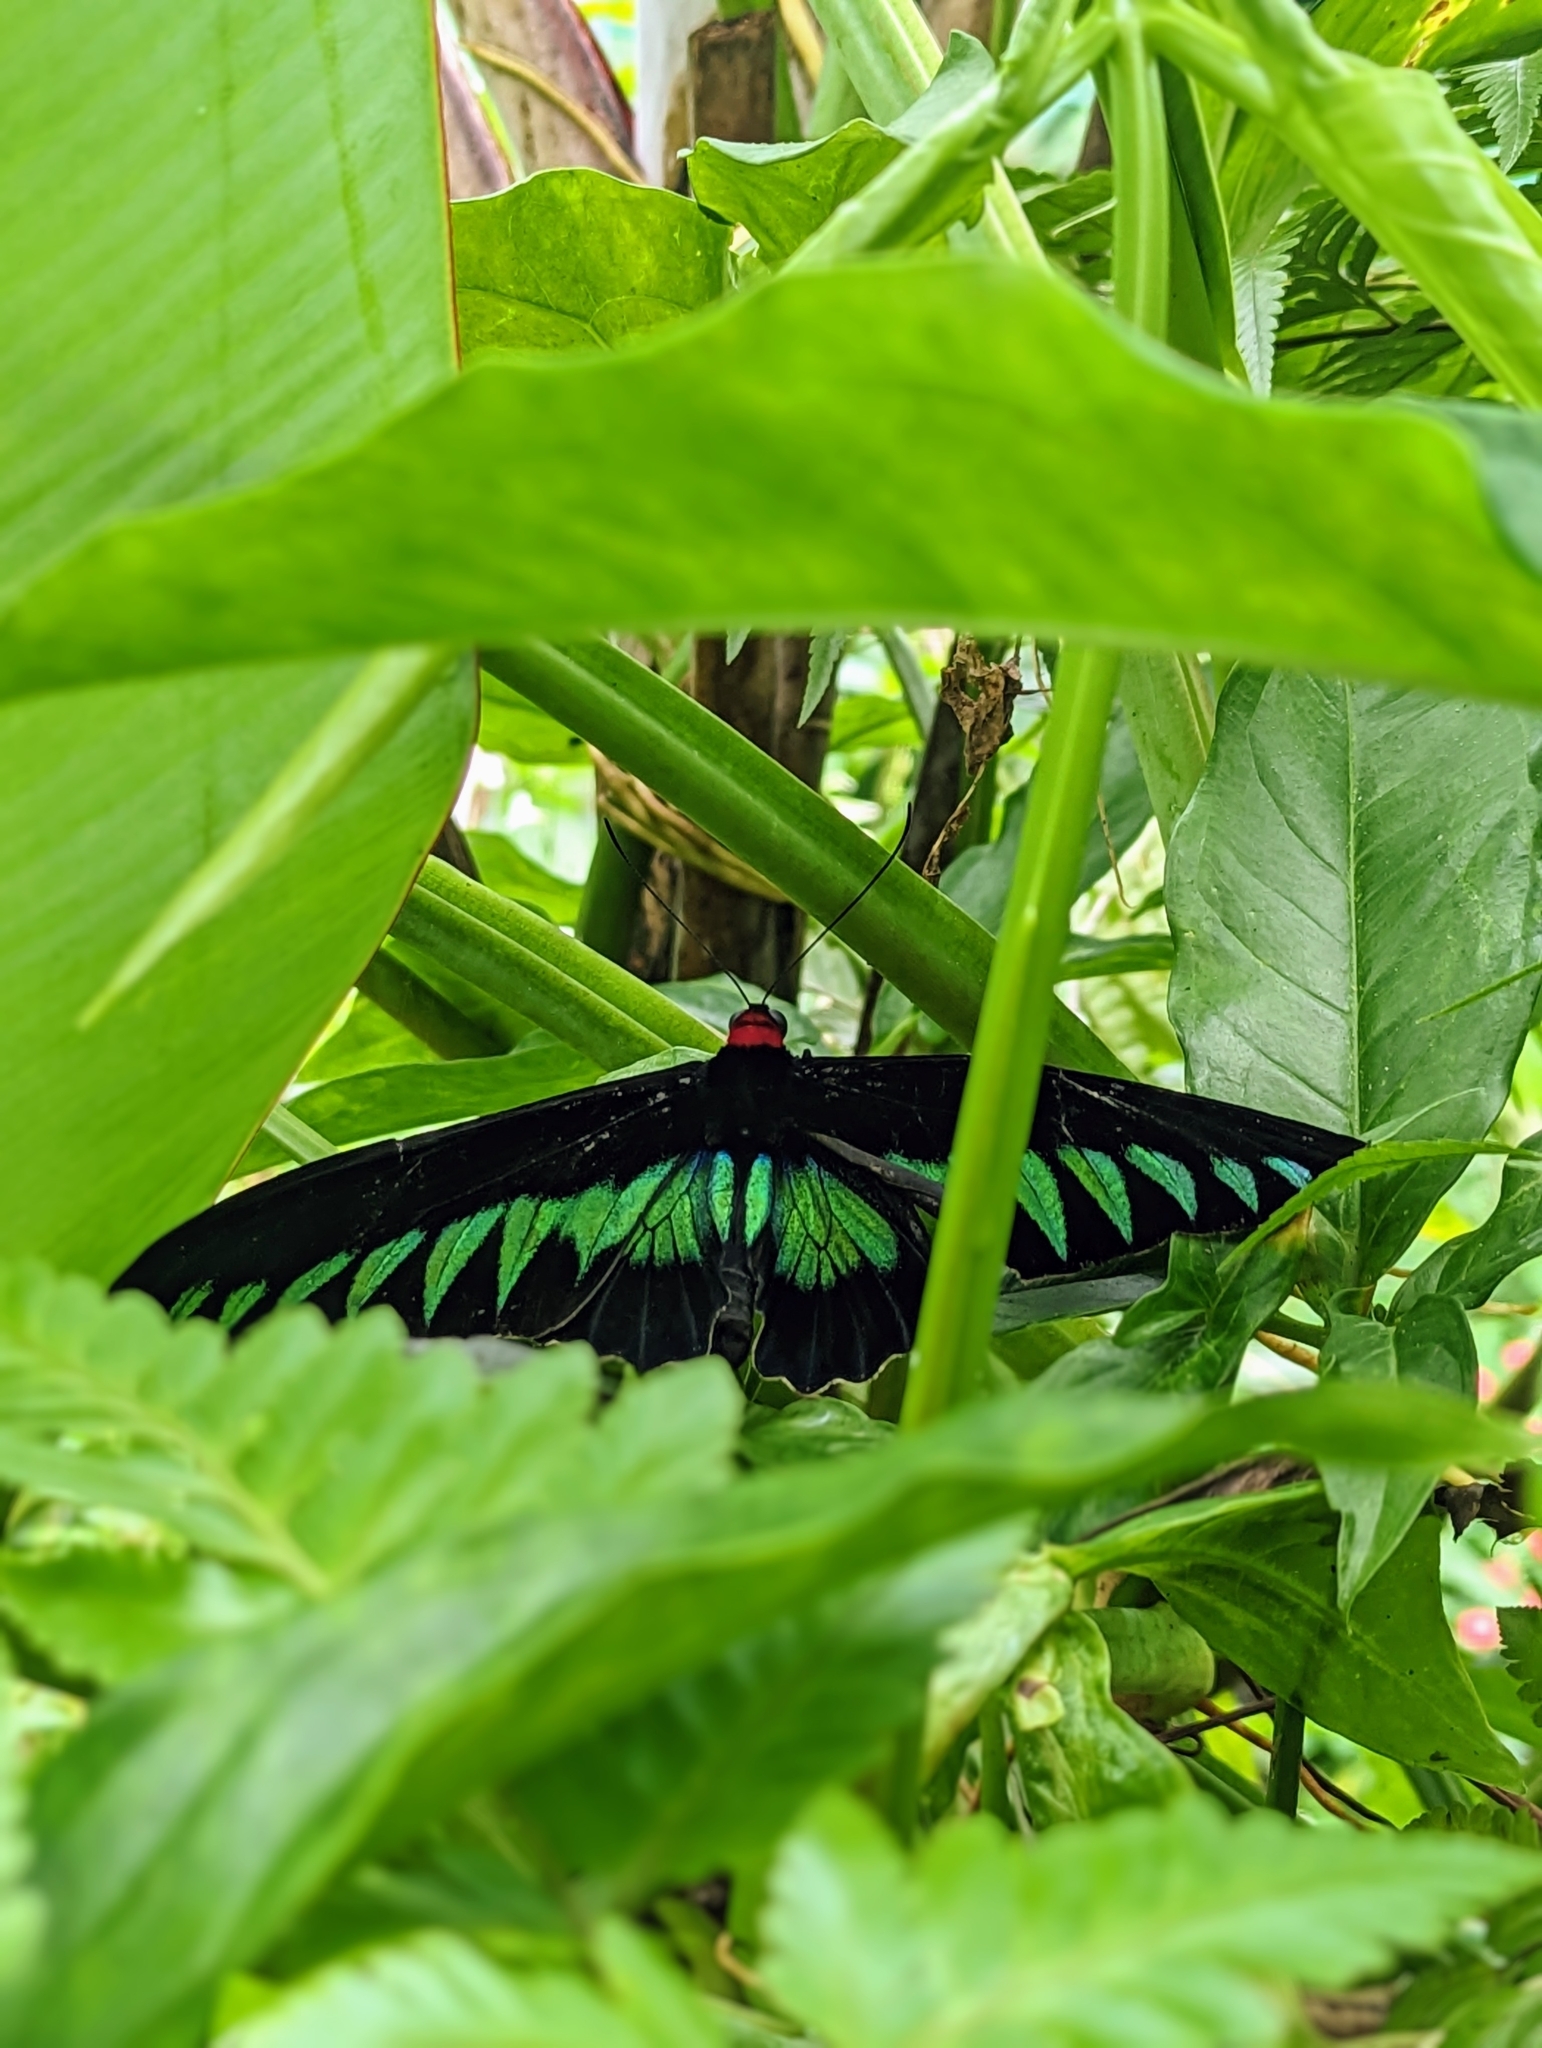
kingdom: Animalia
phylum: Arthropoda
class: Insecta
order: Lepidoptera
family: Papilionidae
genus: Trogonoptera
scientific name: Trogonoptera brookiana
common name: Raja brooke's birdwing
